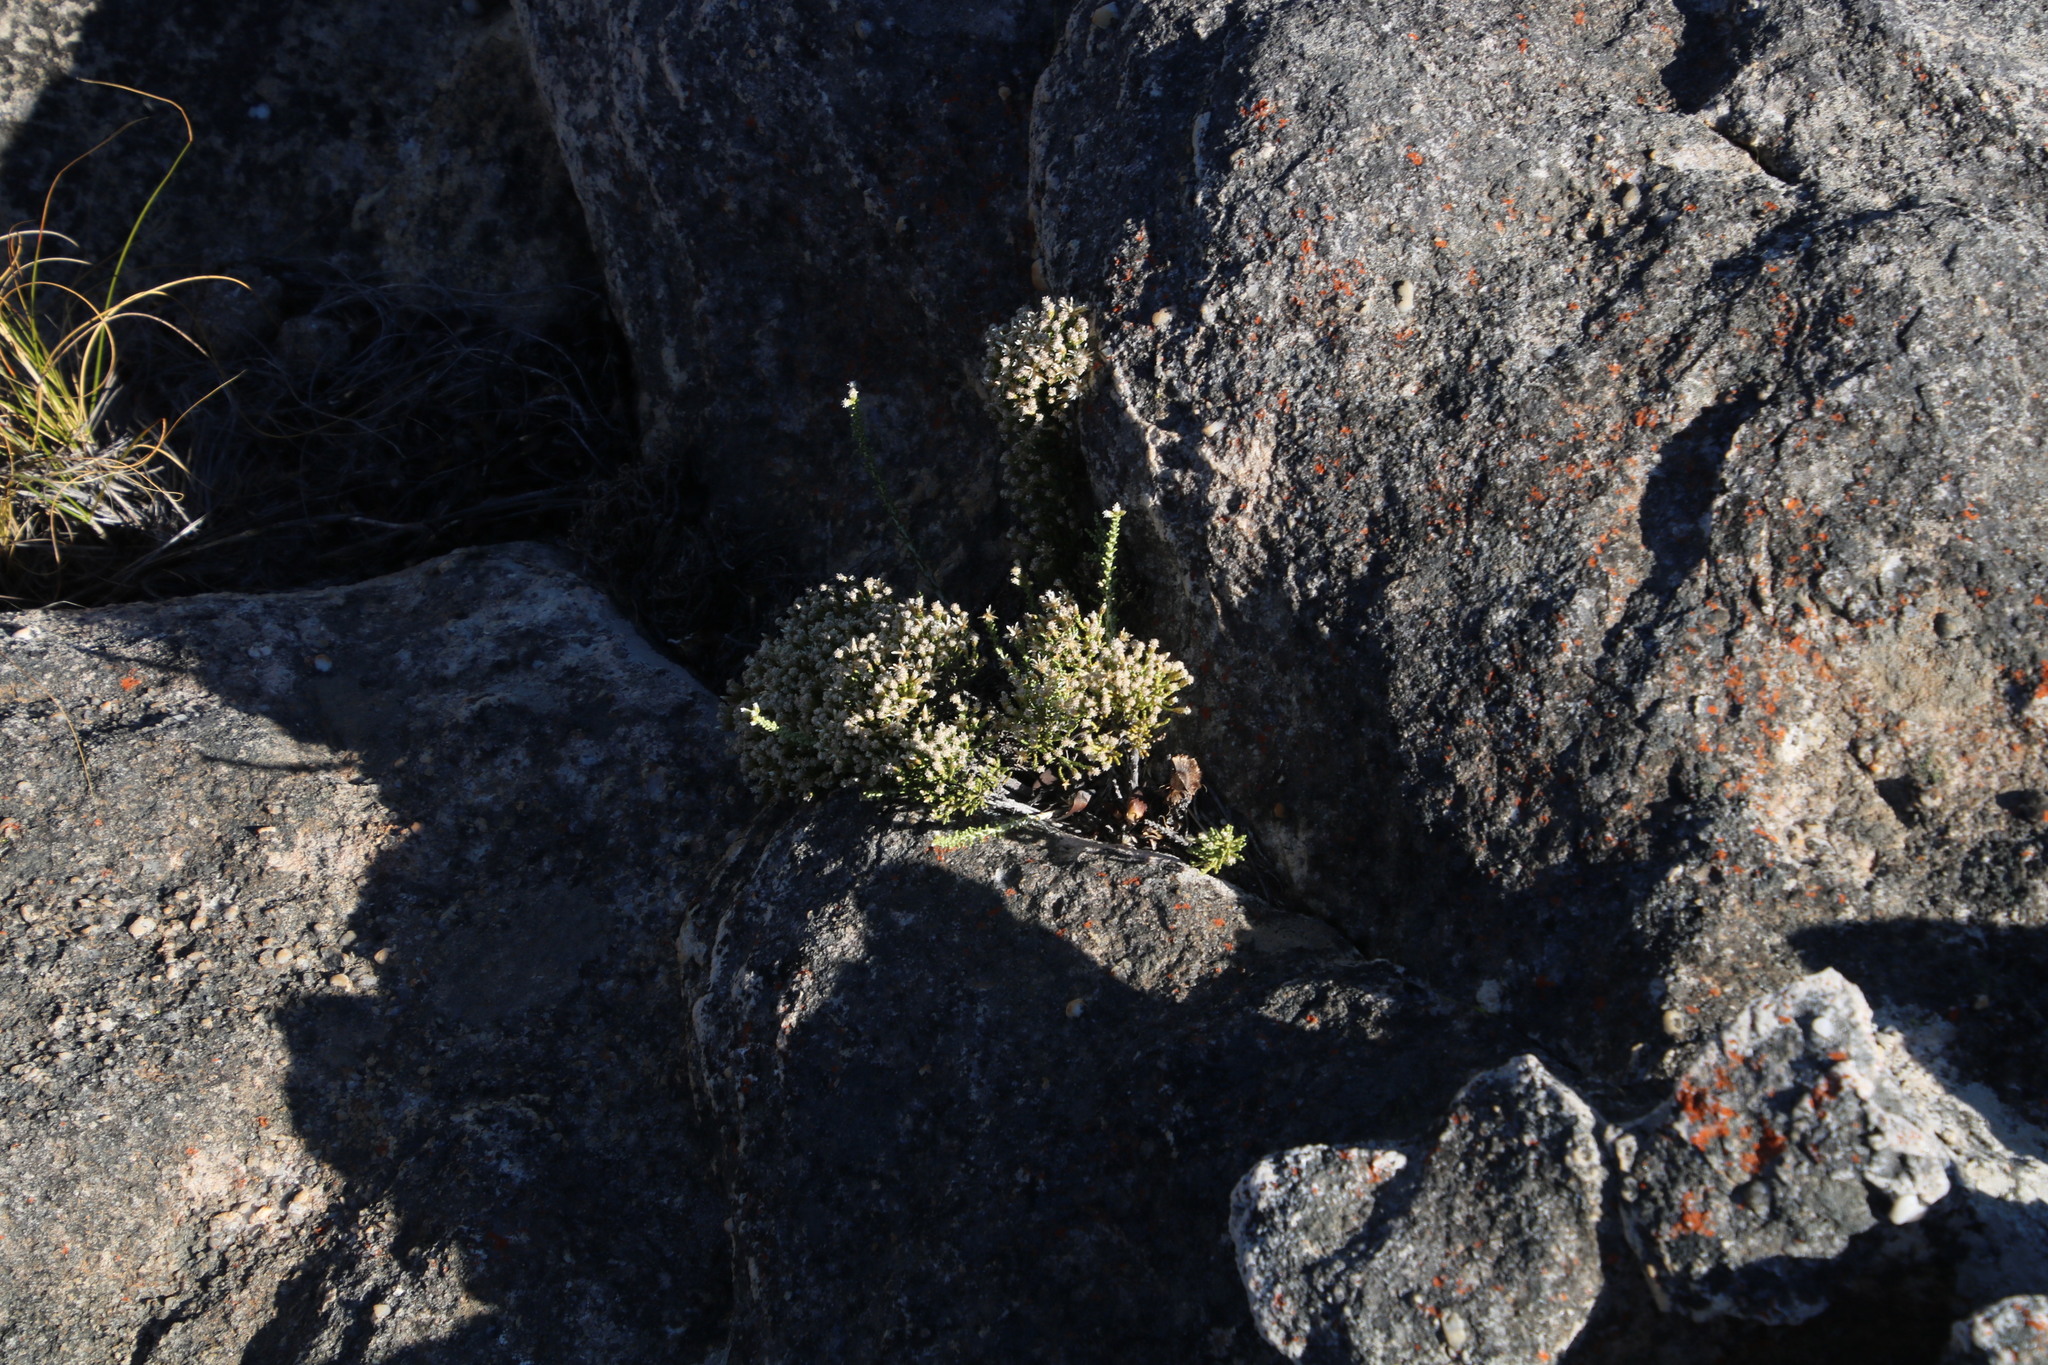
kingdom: Plantae
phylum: Tracheophyta
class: Magnoliopsida
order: Asterales
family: Asteraceae
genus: Dolichothrix
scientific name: Dolichothrix ericoides
